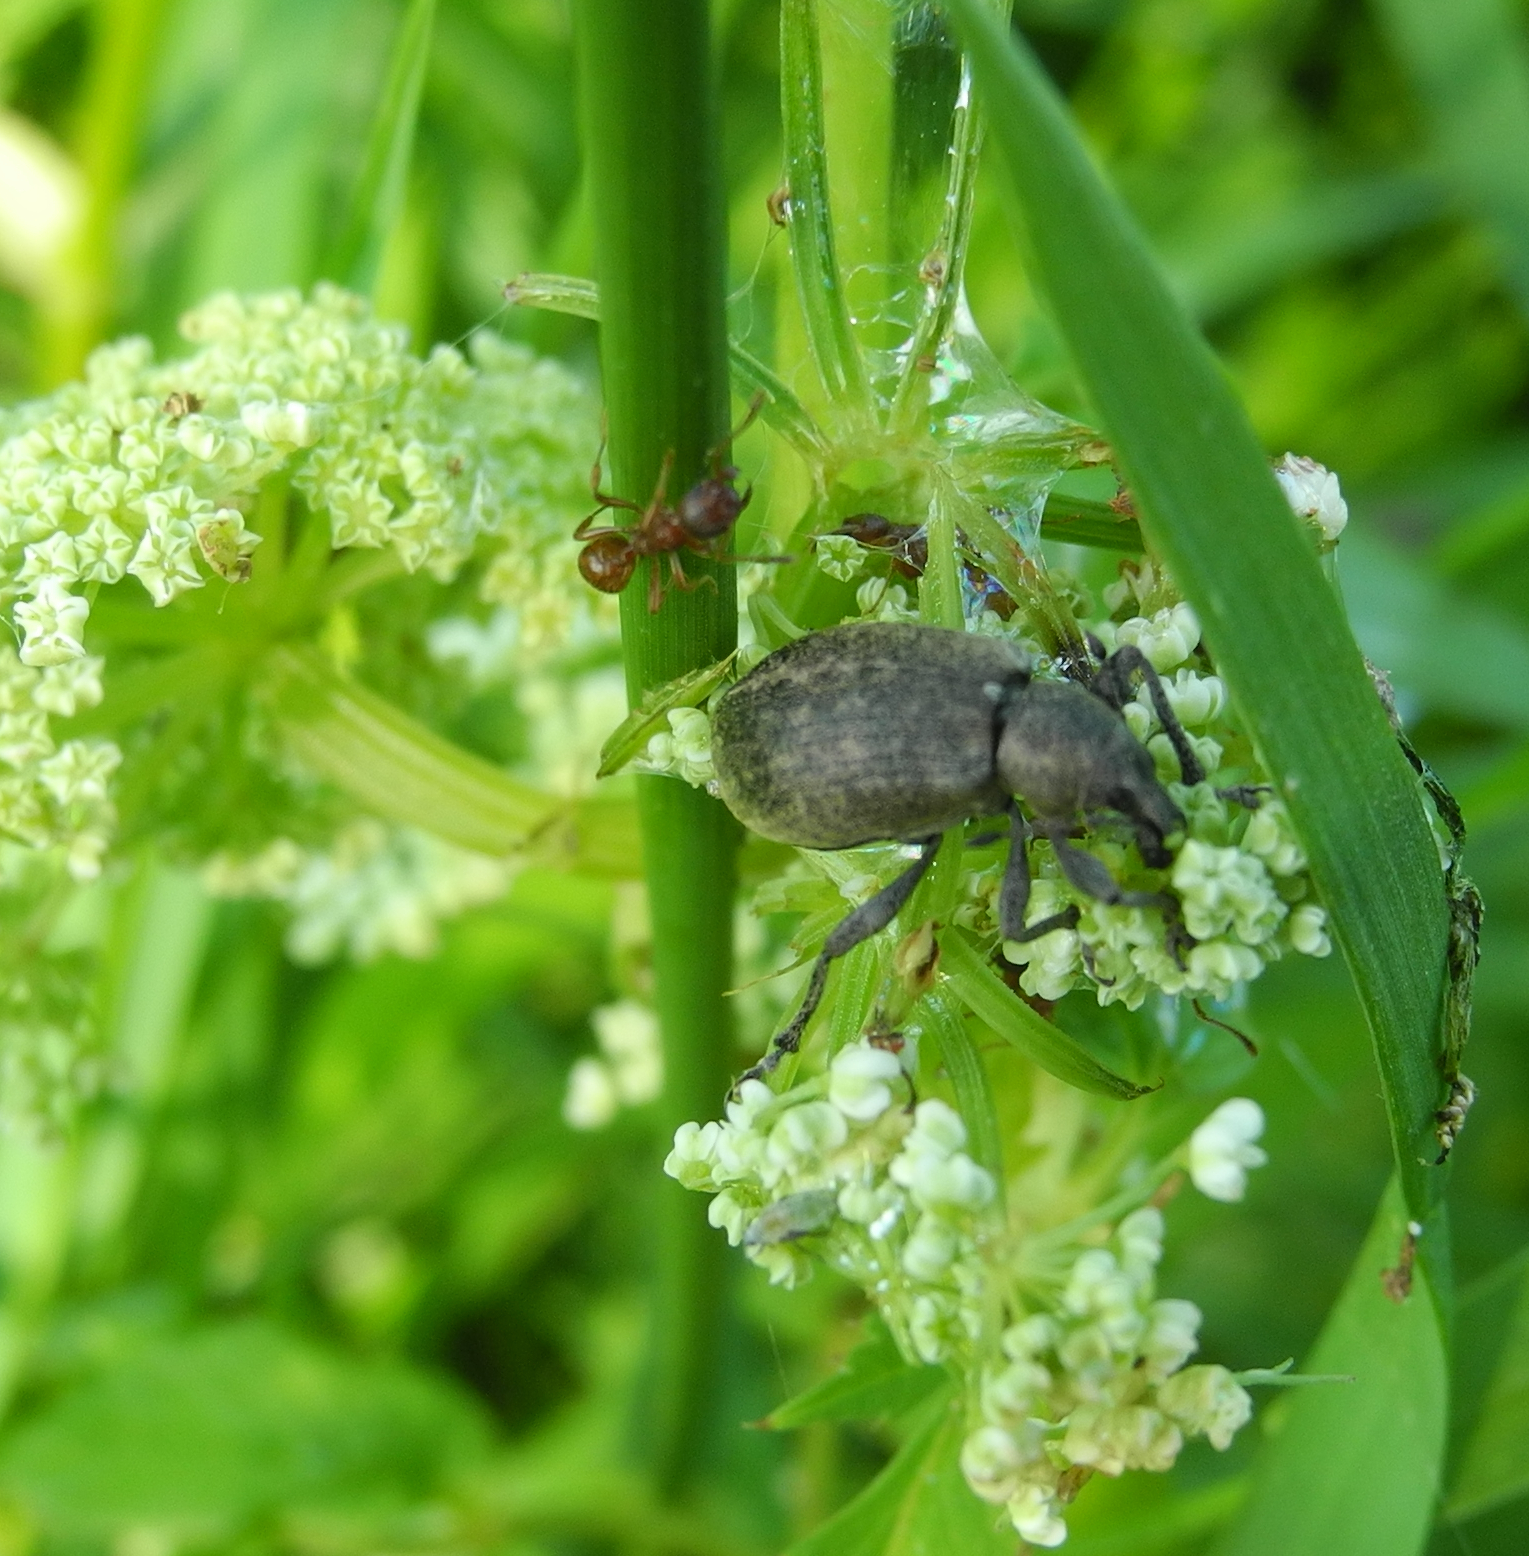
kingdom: Animalia
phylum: Arthropoda
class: Insecta
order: Coleoptera
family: Curculionidae
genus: Liophloeus
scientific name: Liophloeus tessulatus
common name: Weevil
